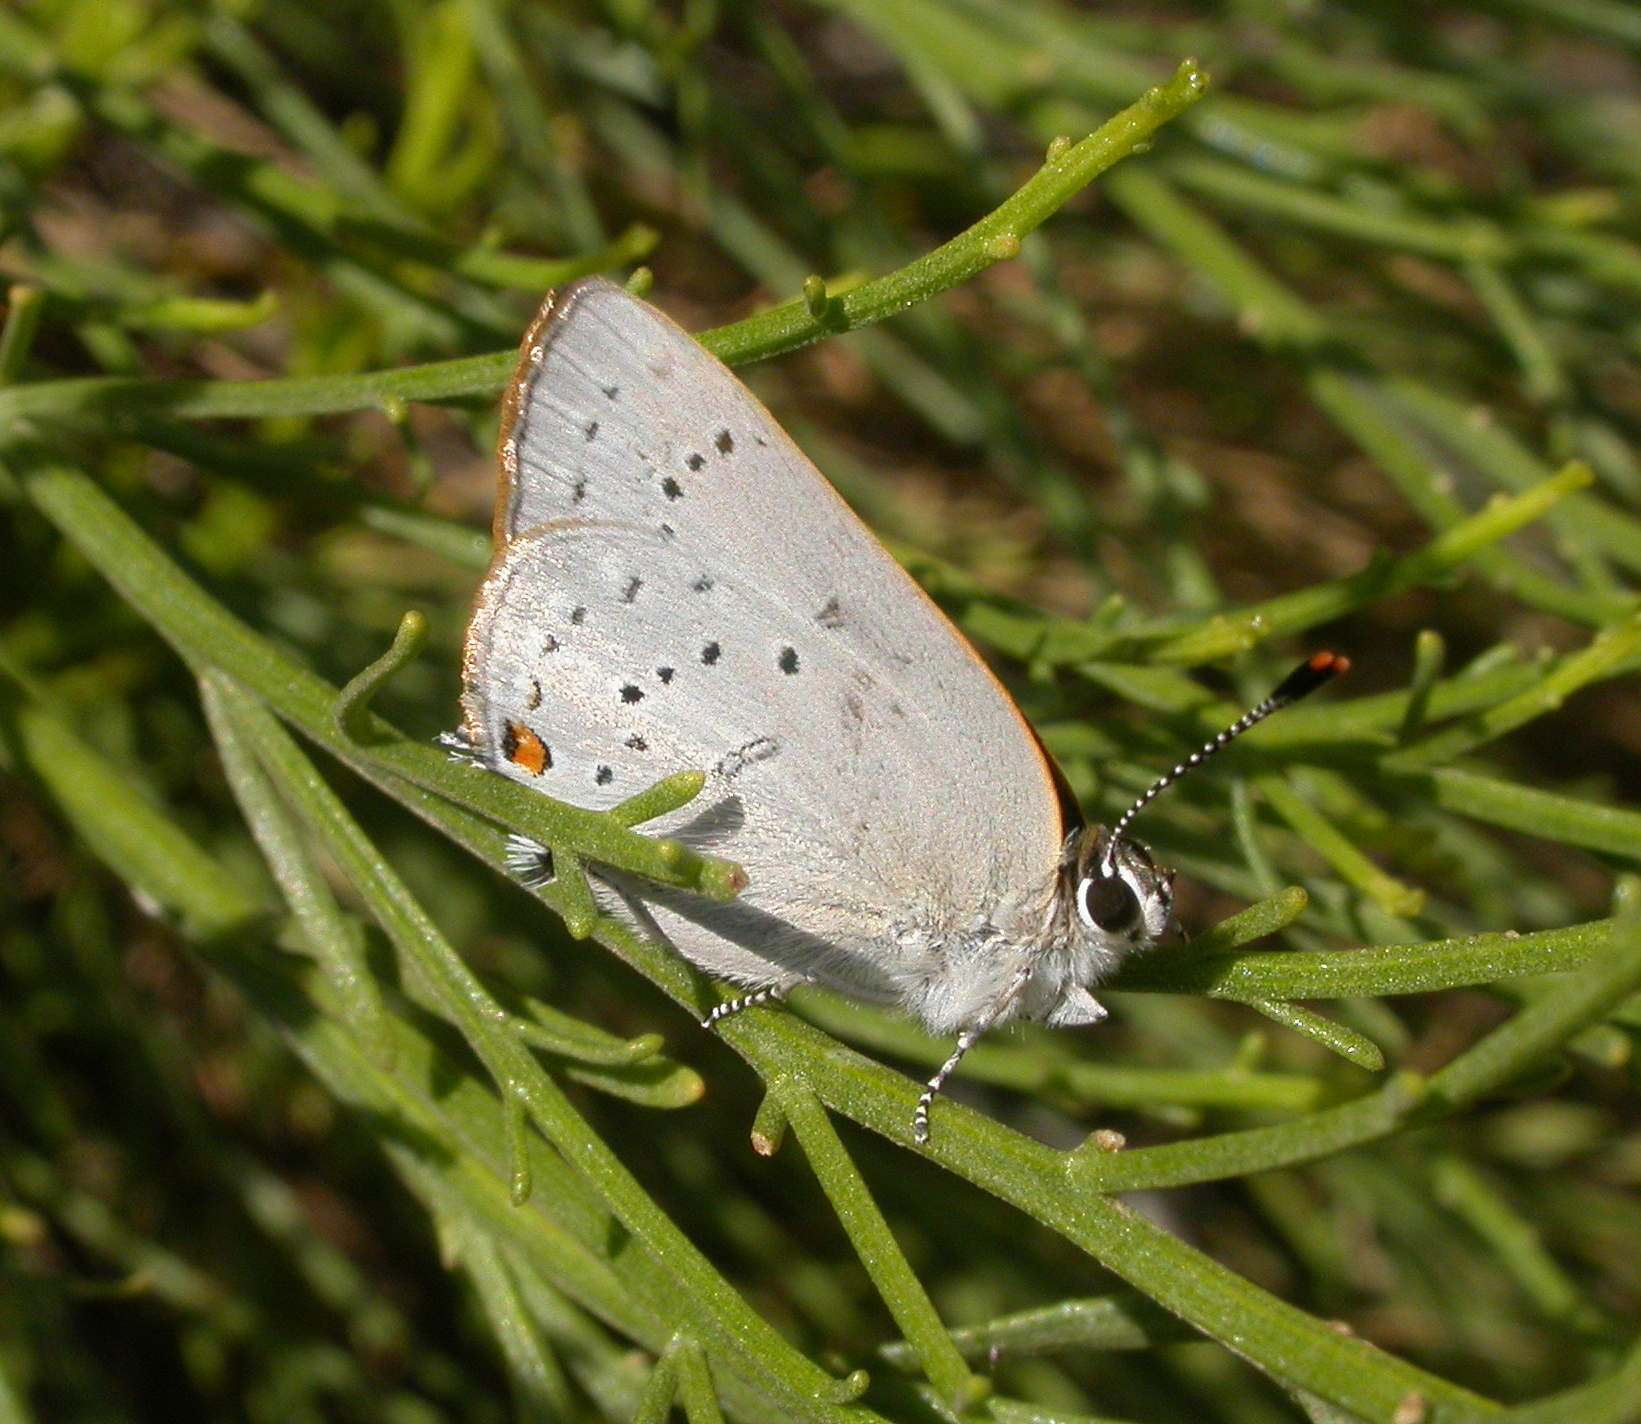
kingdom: Animalia
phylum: Arthropoda
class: Insecta
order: Lepidoptera
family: Lycaenidae
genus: Strymon
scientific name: Strymon sylvinus
